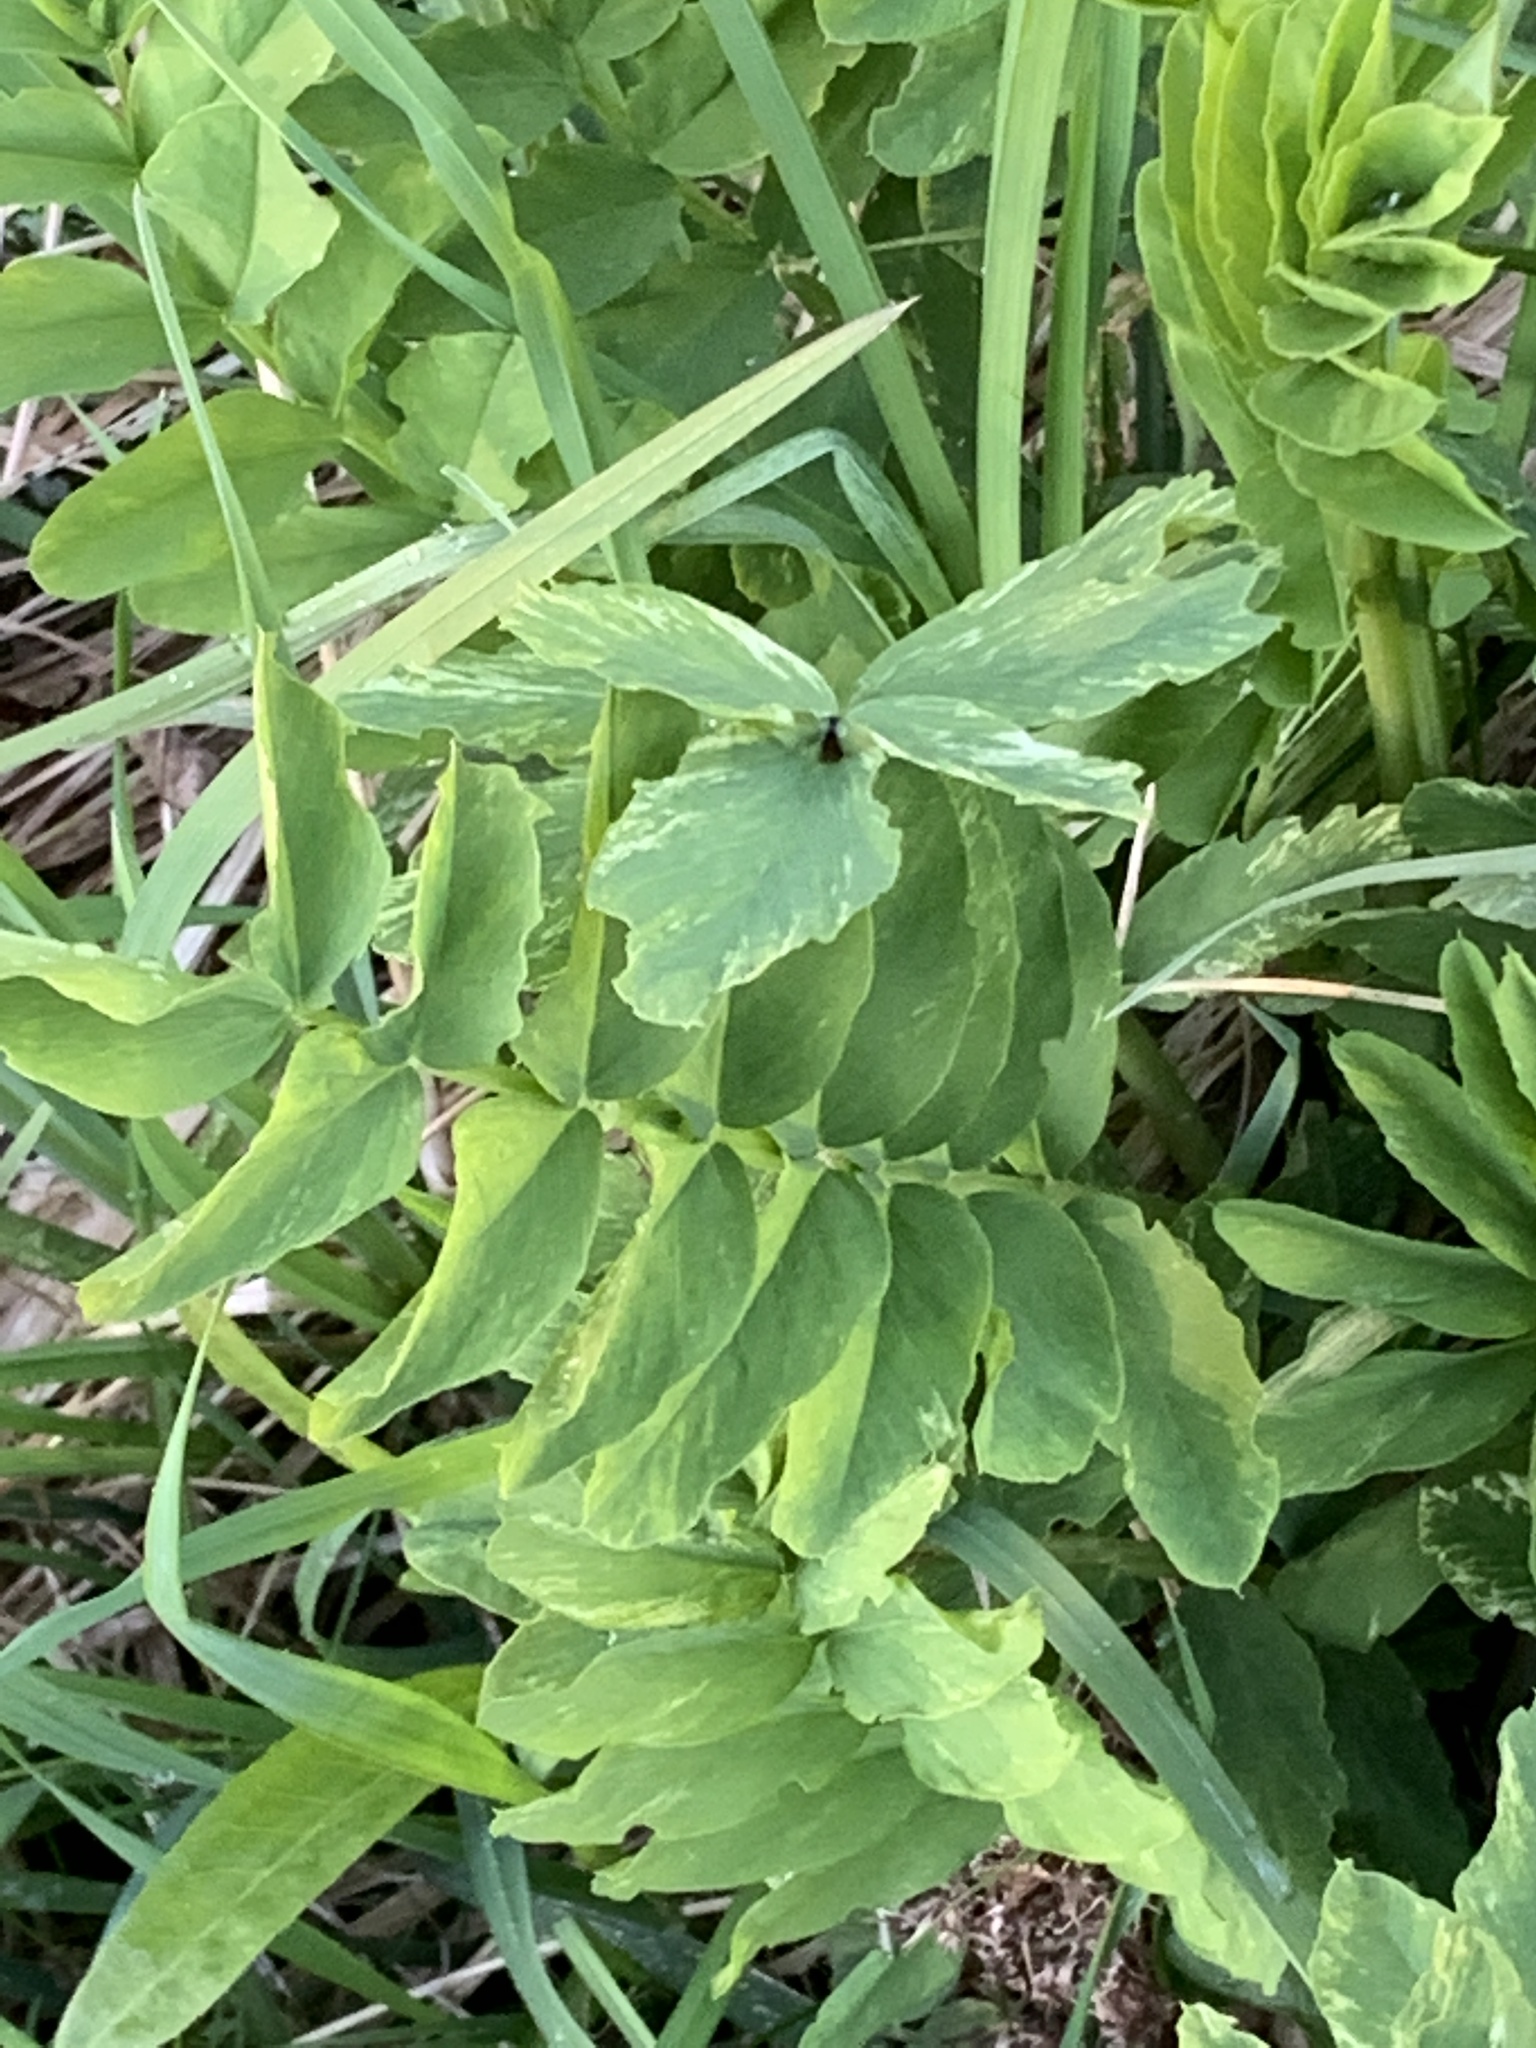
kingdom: Plantae
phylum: Tracheophyta
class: Magnoliopsida
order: Fabales
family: Fabaceae
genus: Galega
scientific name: Galega officinalis
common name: Goat's-rue
